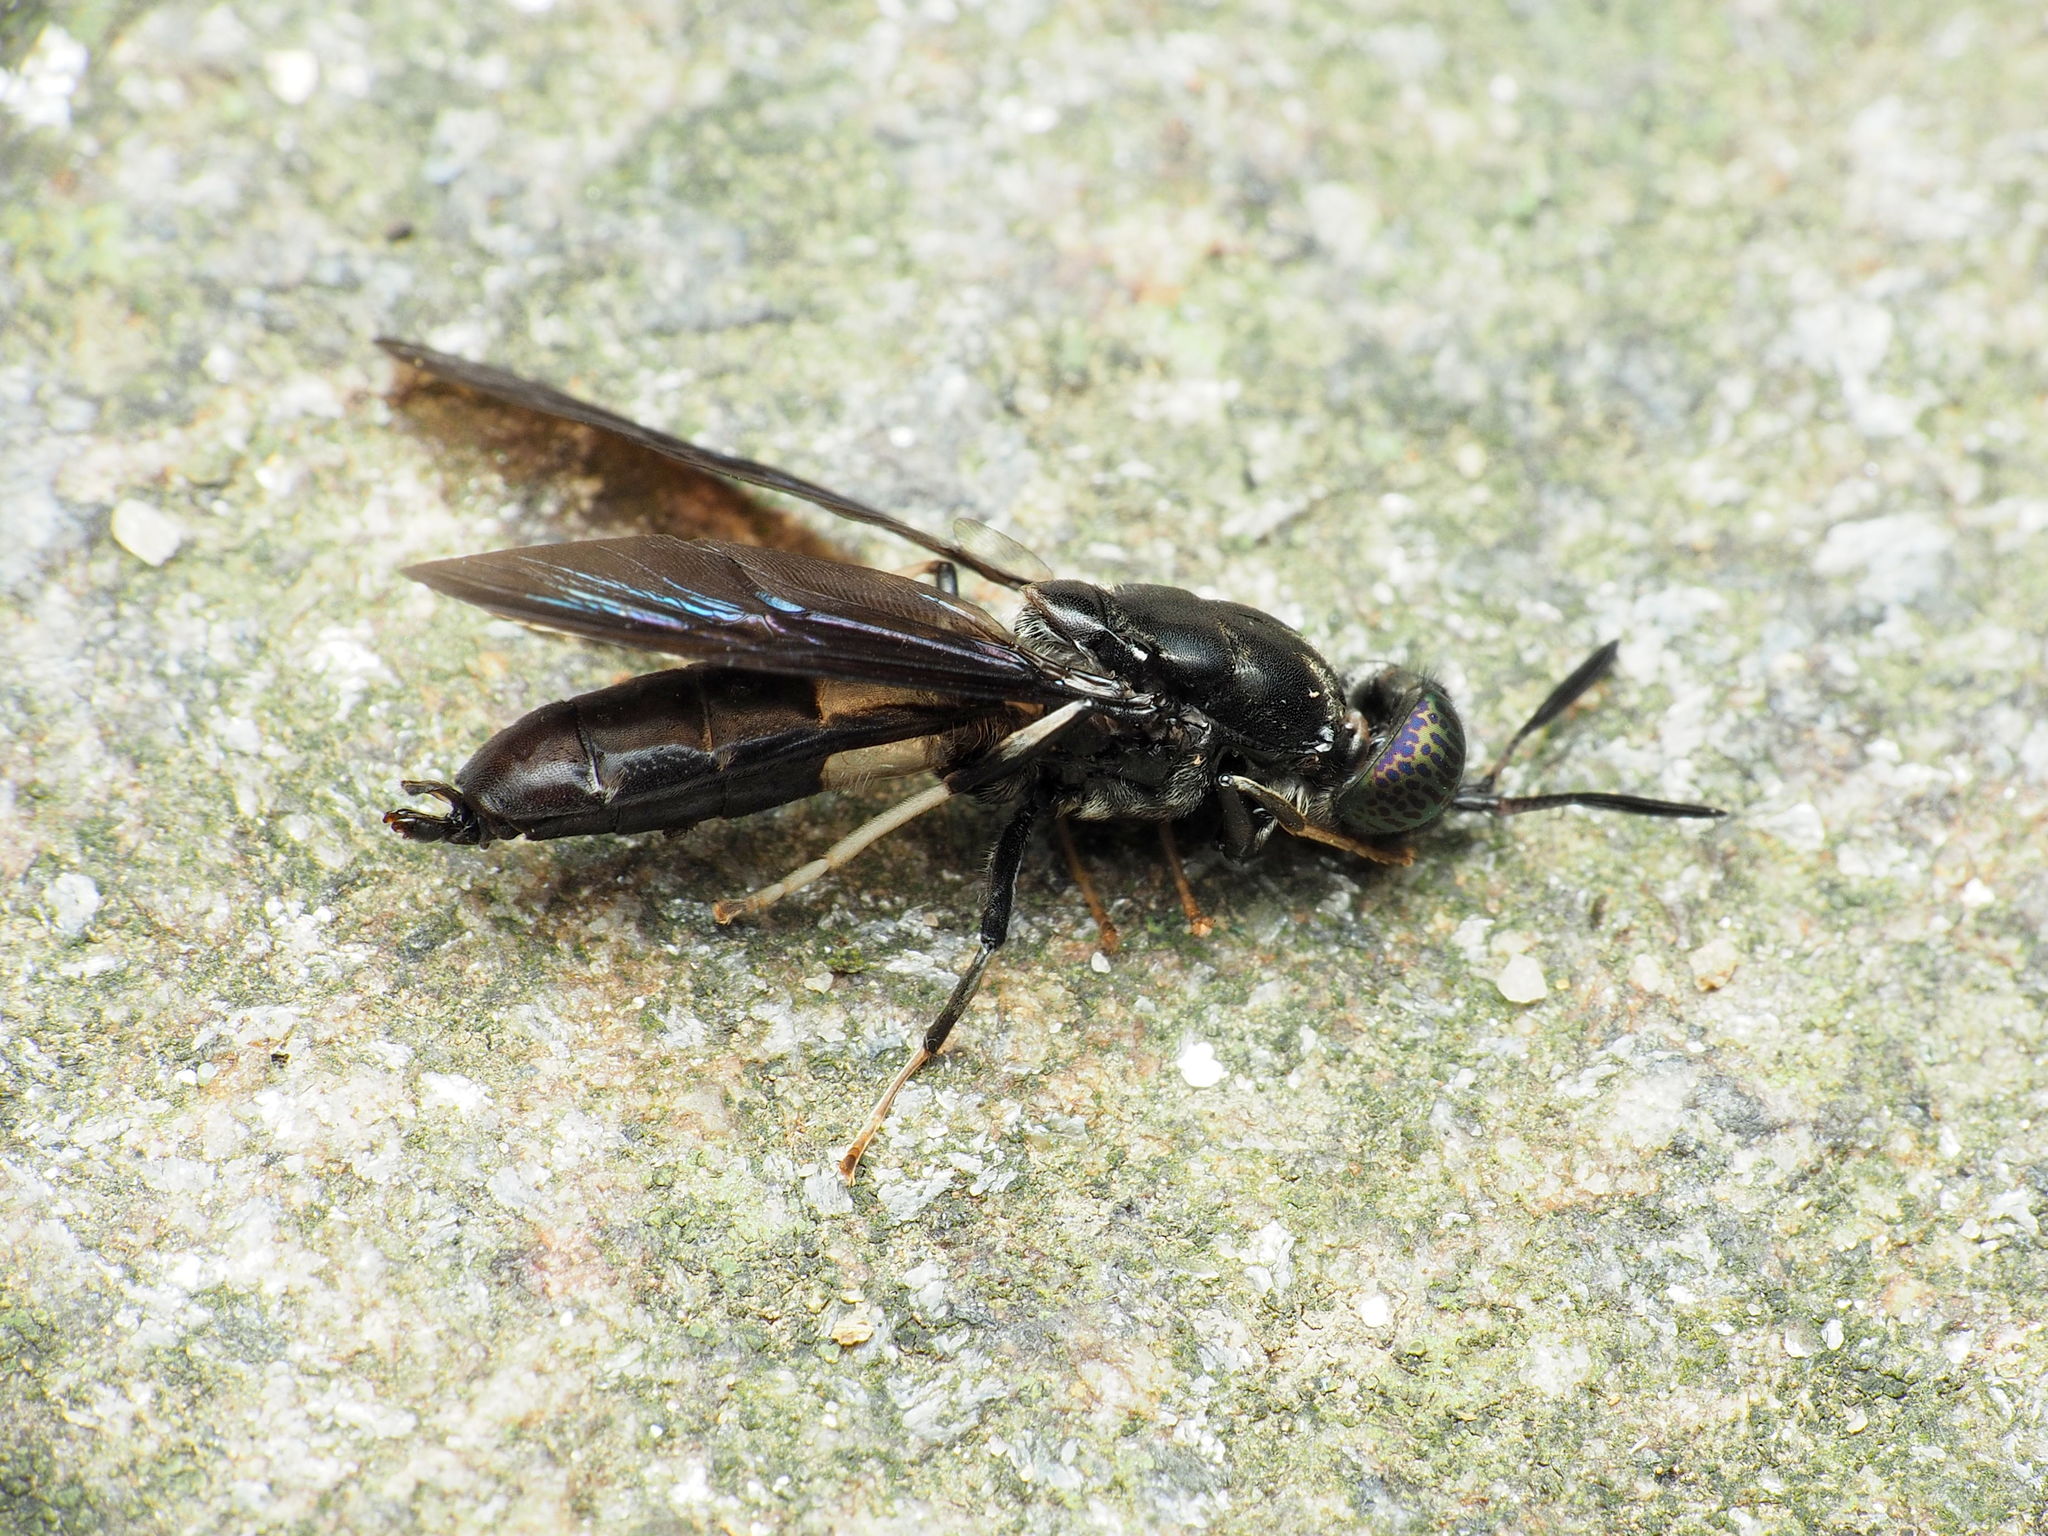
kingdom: Animalia
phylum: Arthropoda
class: Insecta
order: Diptera
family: Stratiomyidae
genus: Hermetia
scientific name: Hermetia illucens
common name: Black soldier fly
